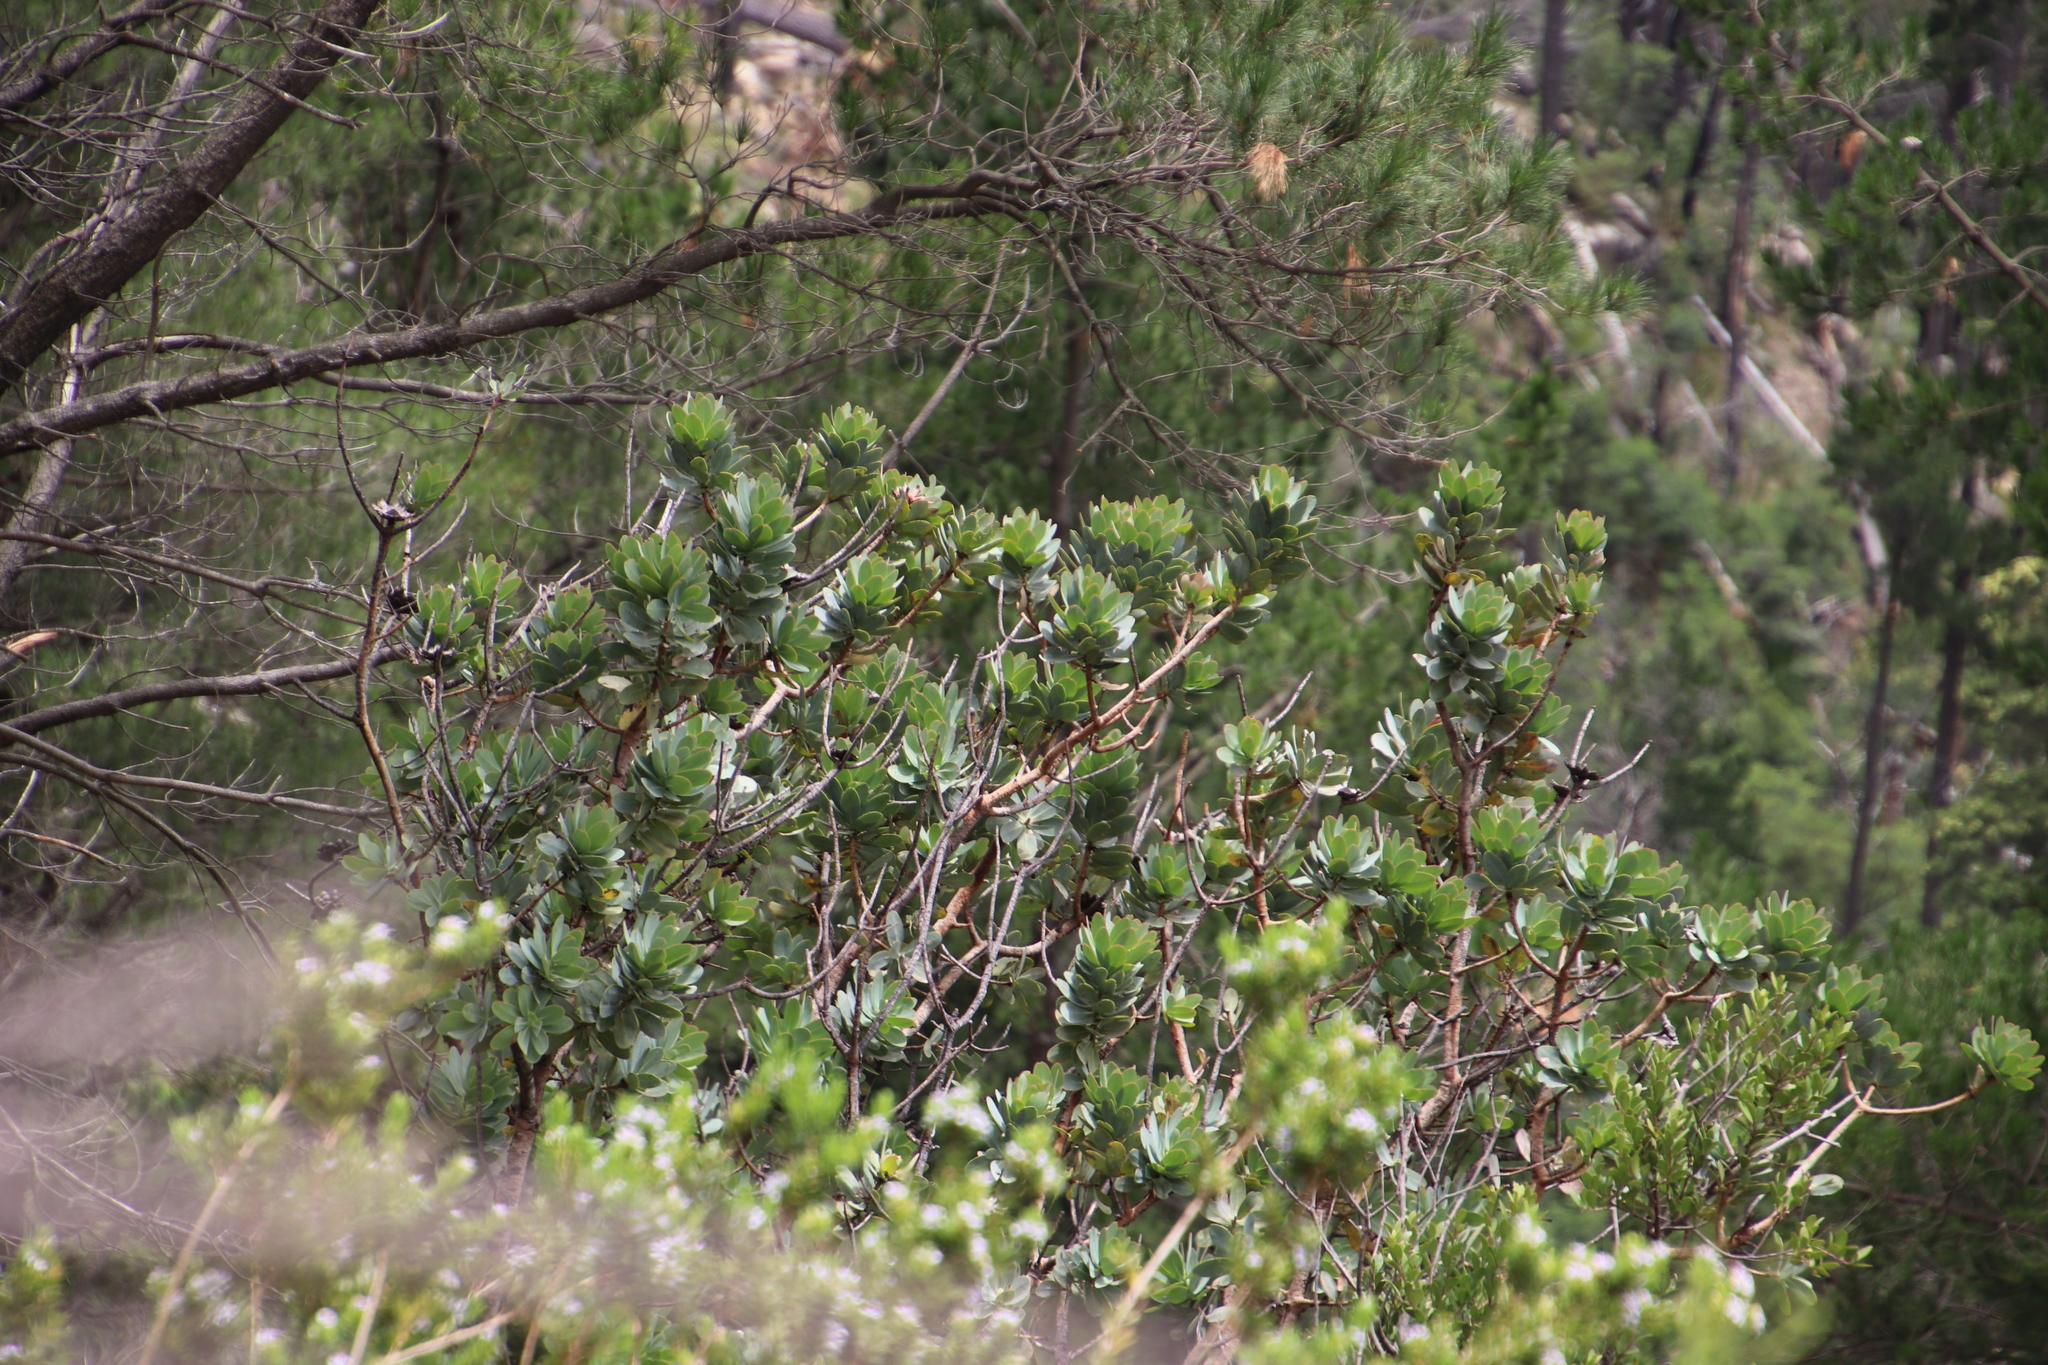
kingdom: Plantae
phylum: Tracheophyta
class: Magnoliopsida
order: Proteales
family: Proteaceae
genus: Protea
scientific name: Protea nitida
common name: Tree protea
